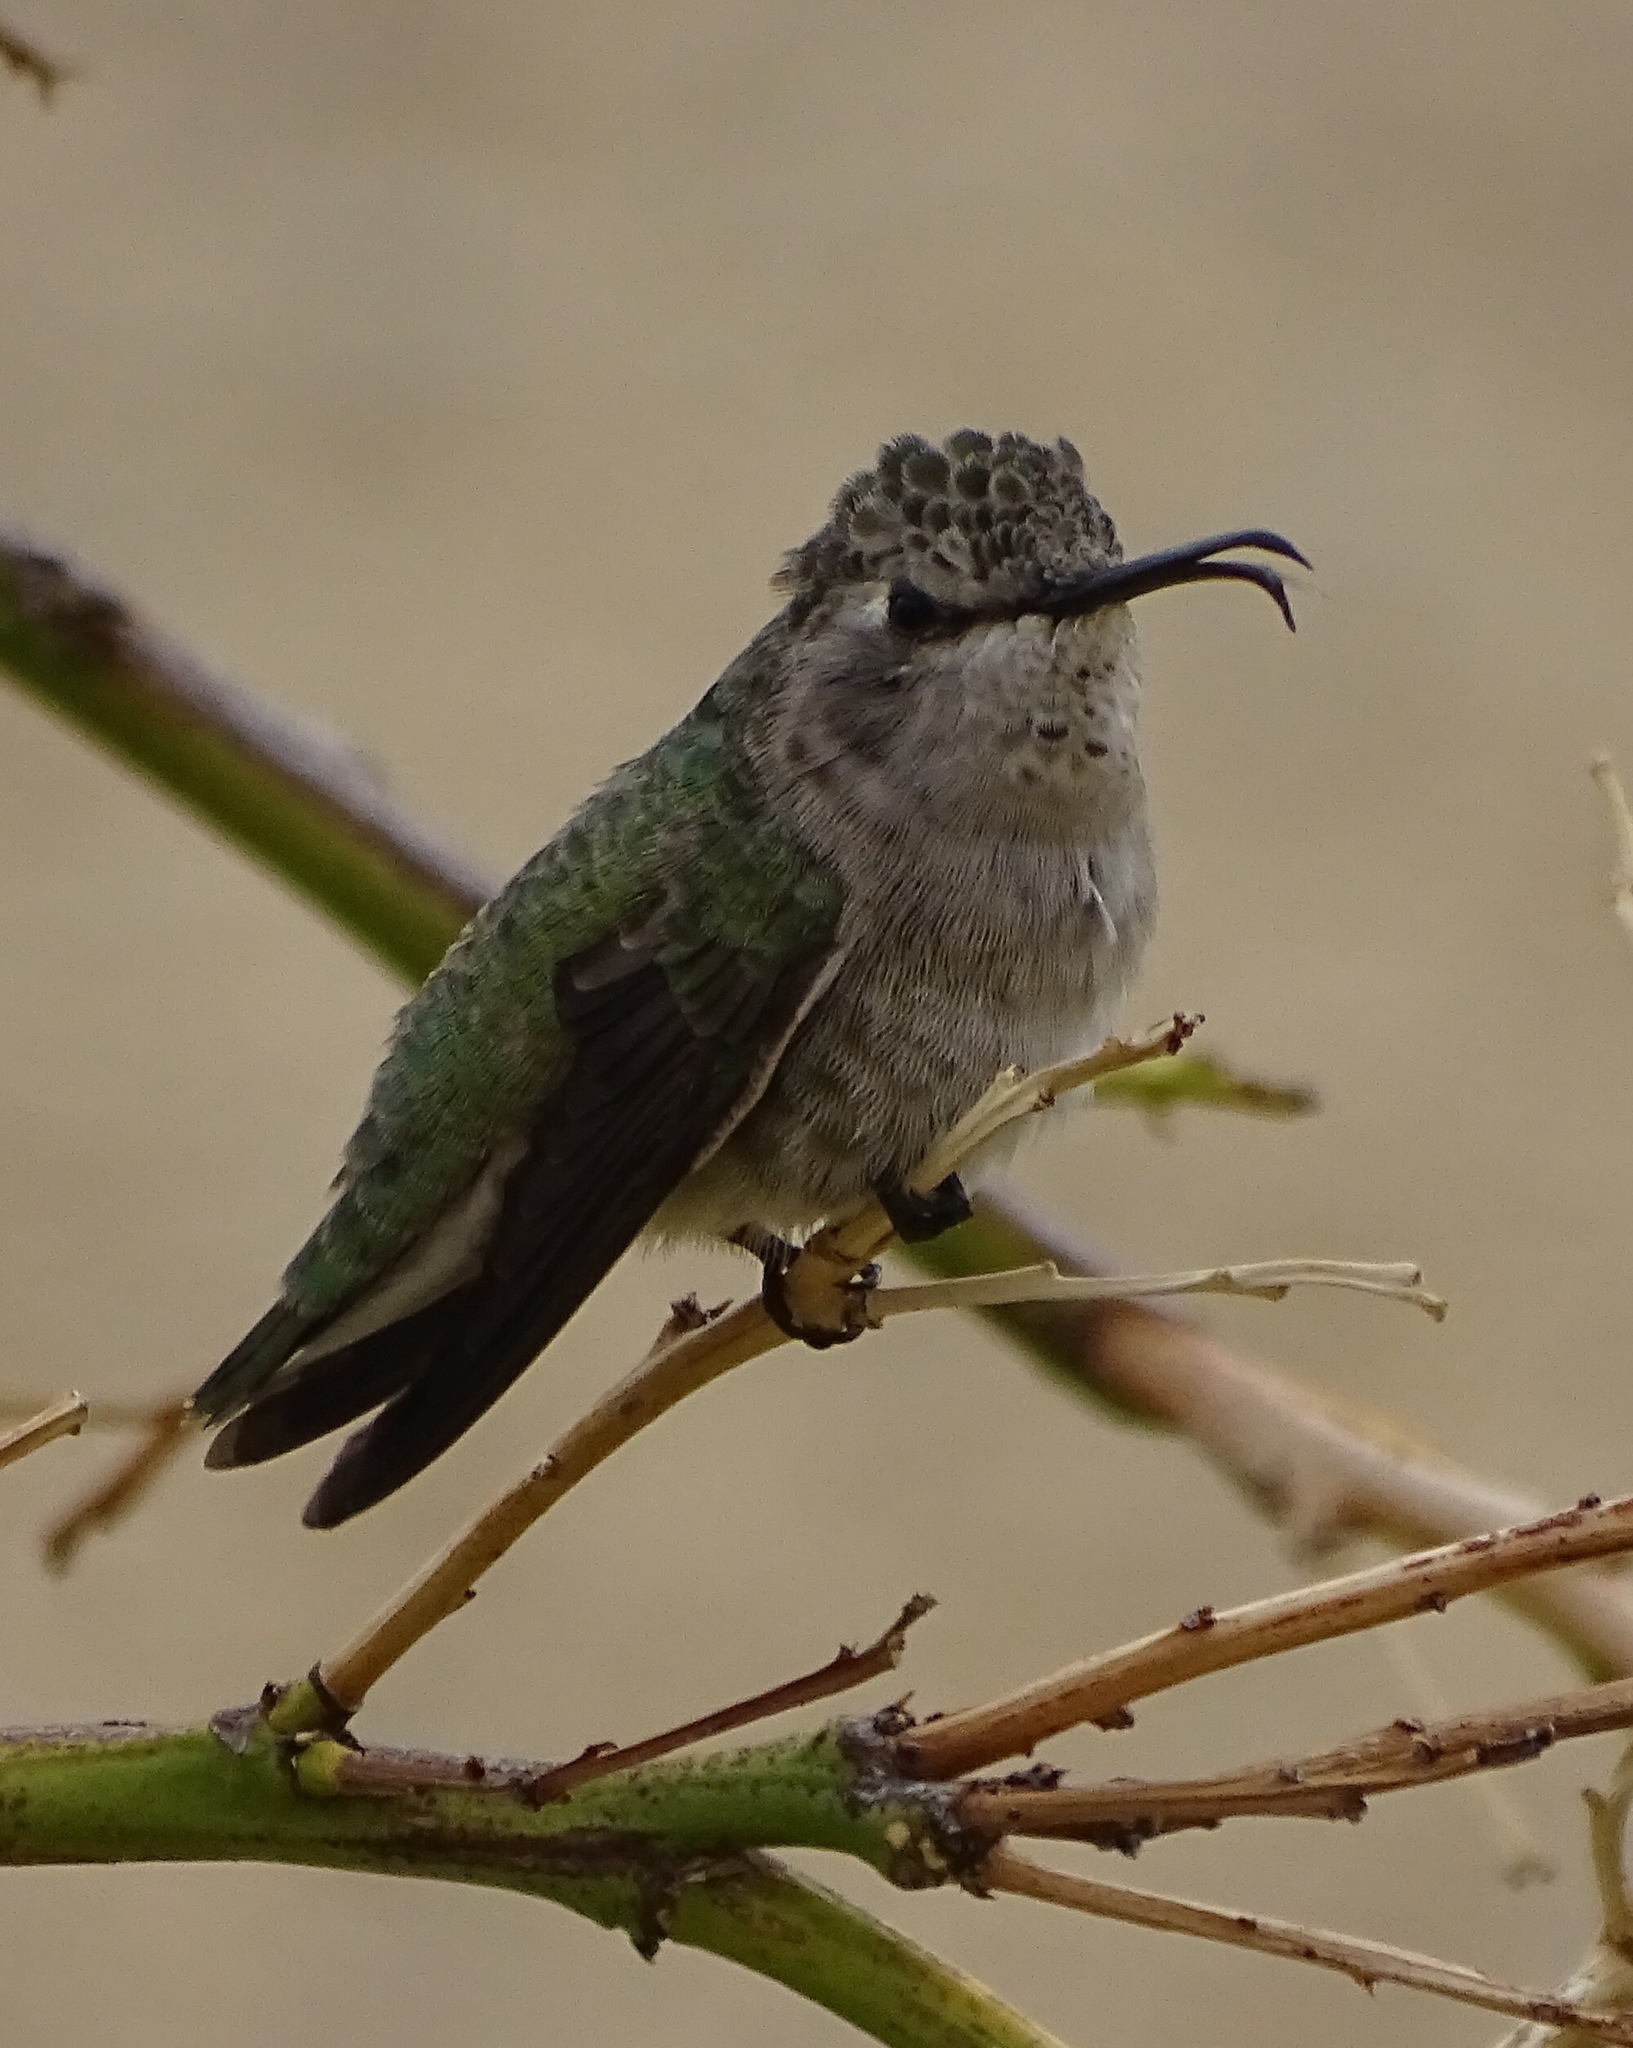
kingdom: Animalia
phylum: Chordata
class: Aves
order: Apodiformes
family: Trochilidae
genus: Calypte
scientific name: Calypte anna
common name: Anna's hummingbird
